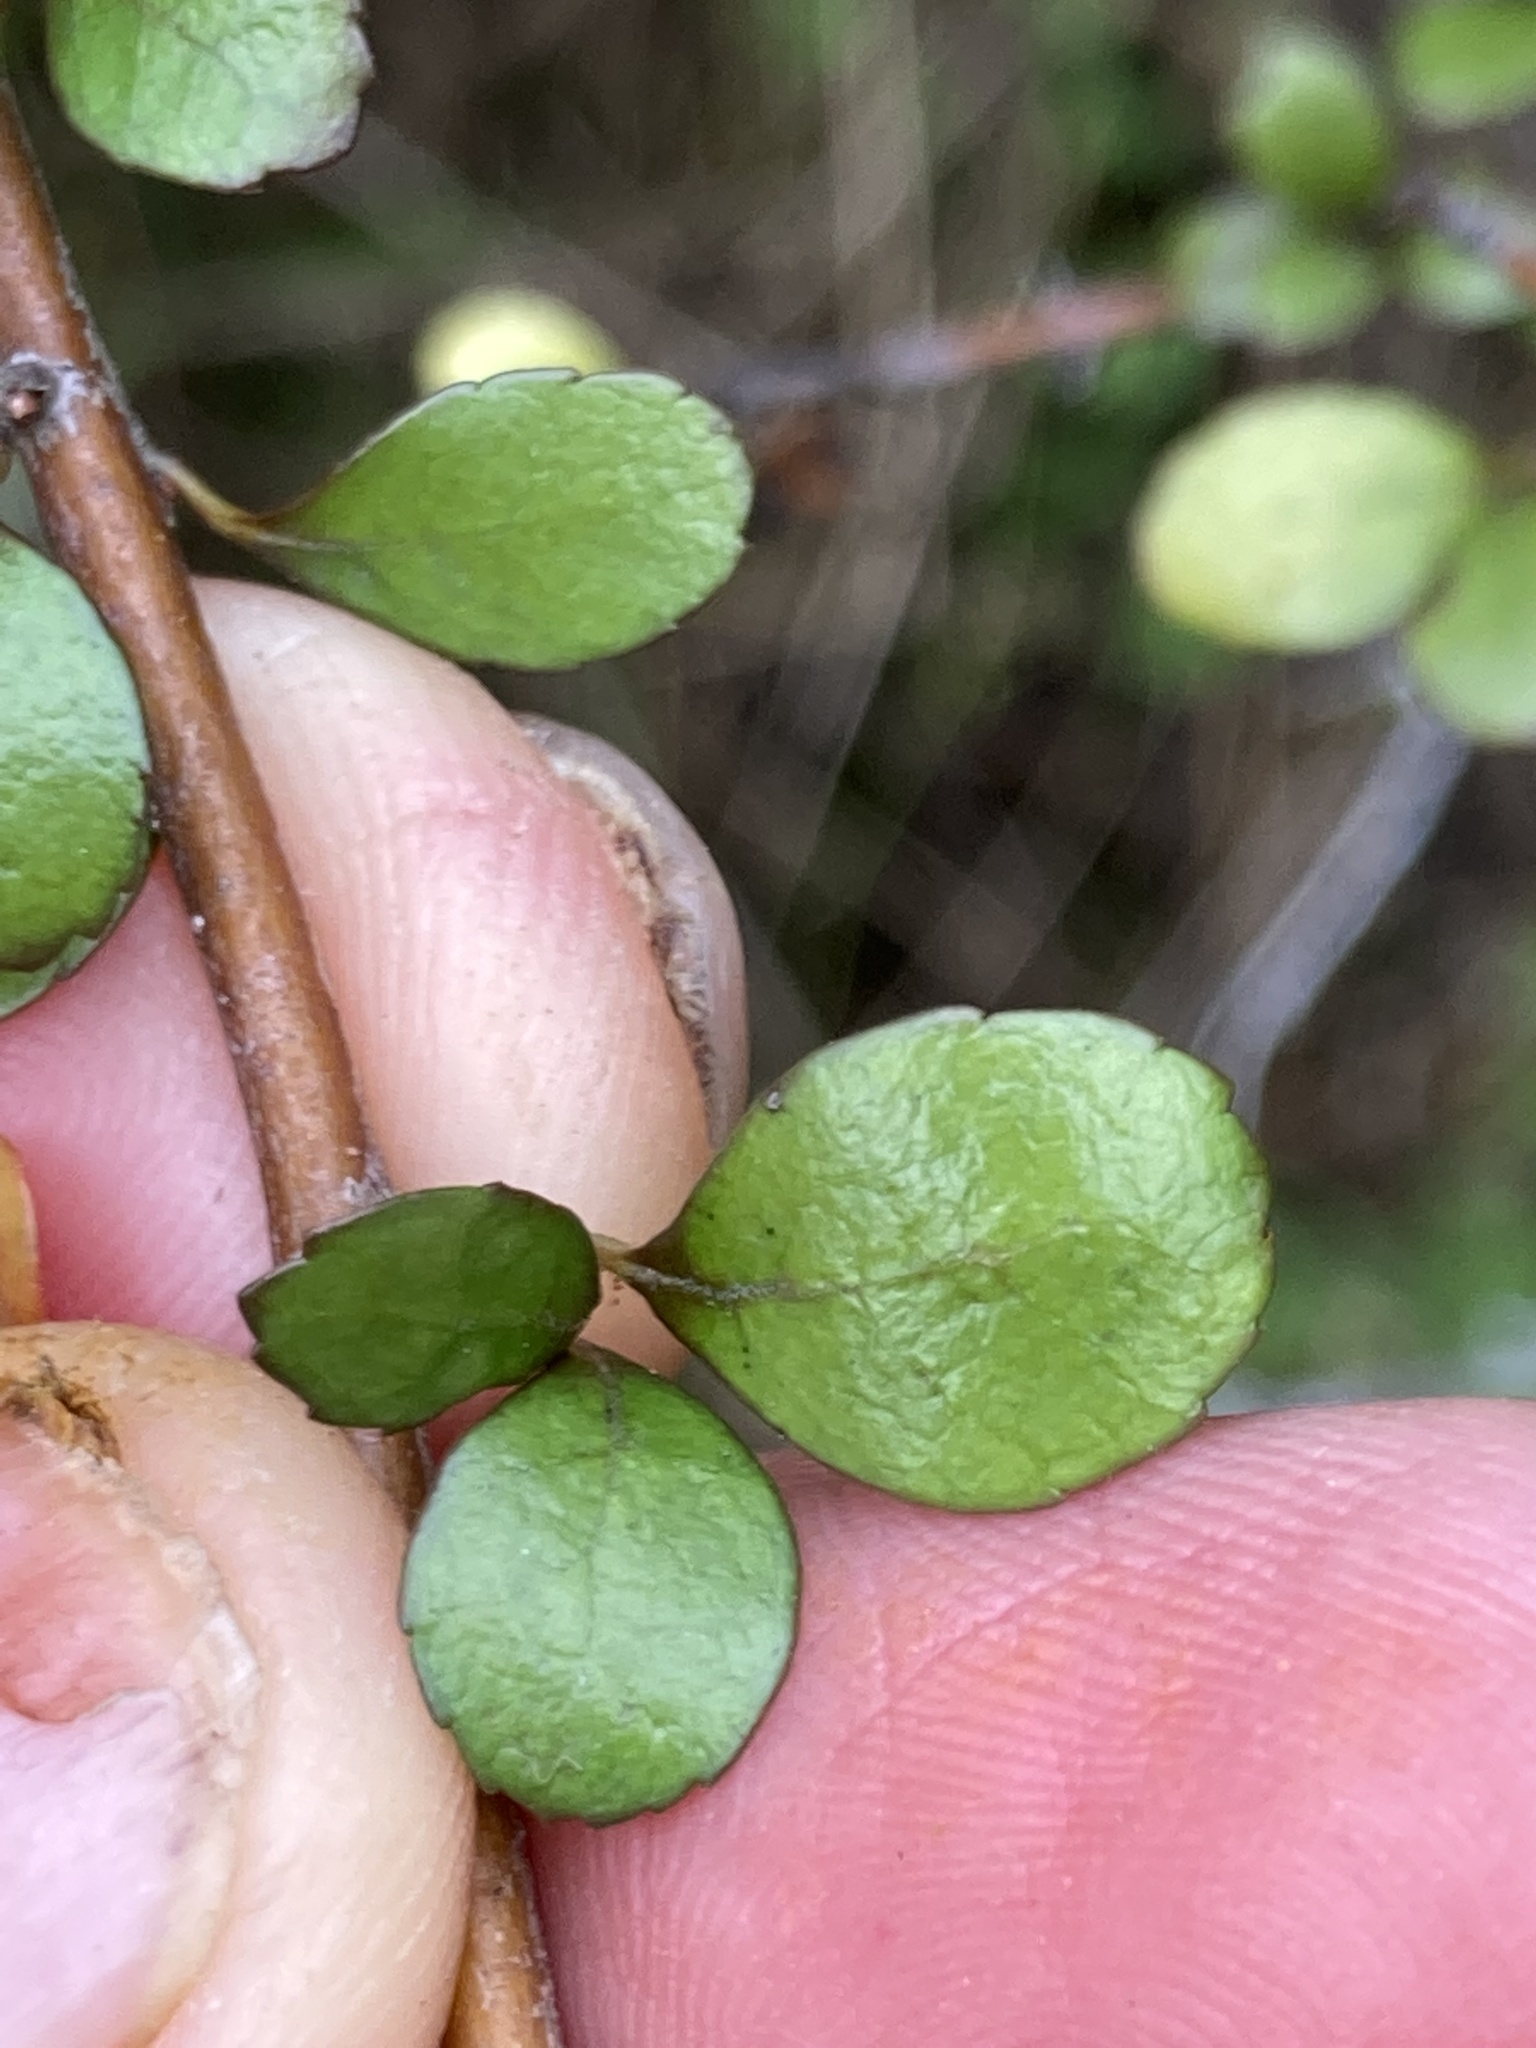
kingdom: Plantae
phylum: Tracheophyta
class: Magnoliopsida
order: Oxalidales
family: Elaeocarpaceae
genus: Aristotelia
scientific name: Aristotelia fruticosa
